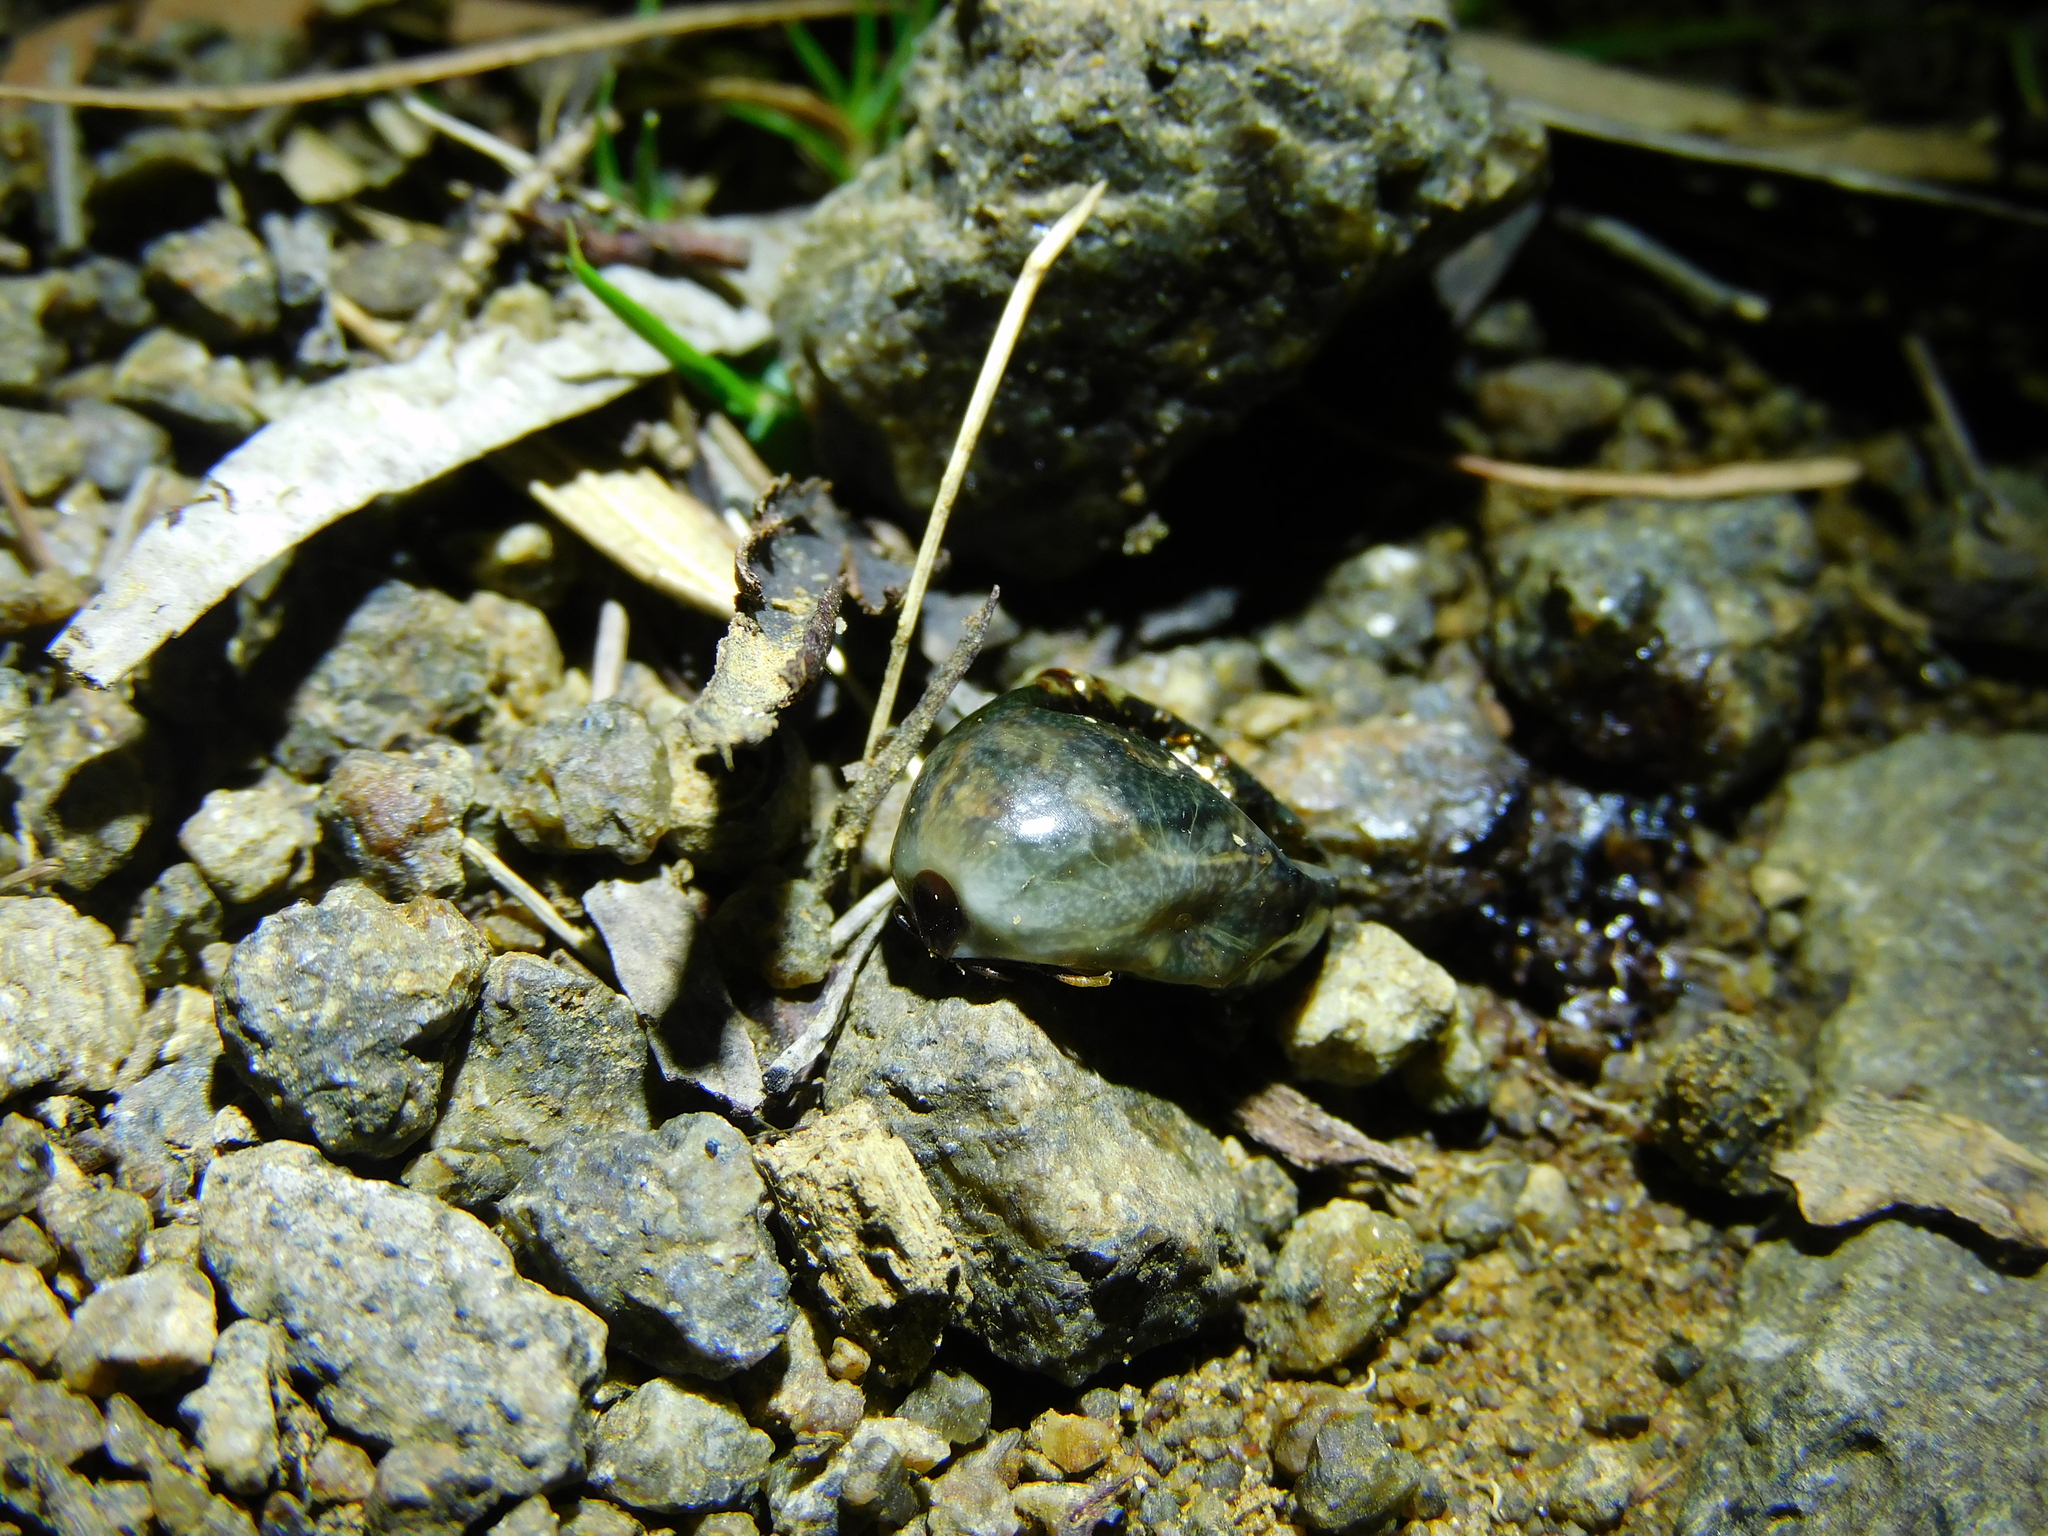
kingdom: Animalia
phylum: Arthropoda
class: Arachnida
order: Ixodida
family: Ixodidae
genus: Ixodes
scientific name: Ixodes cornuatus
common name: Tasmanian paralysis tick
